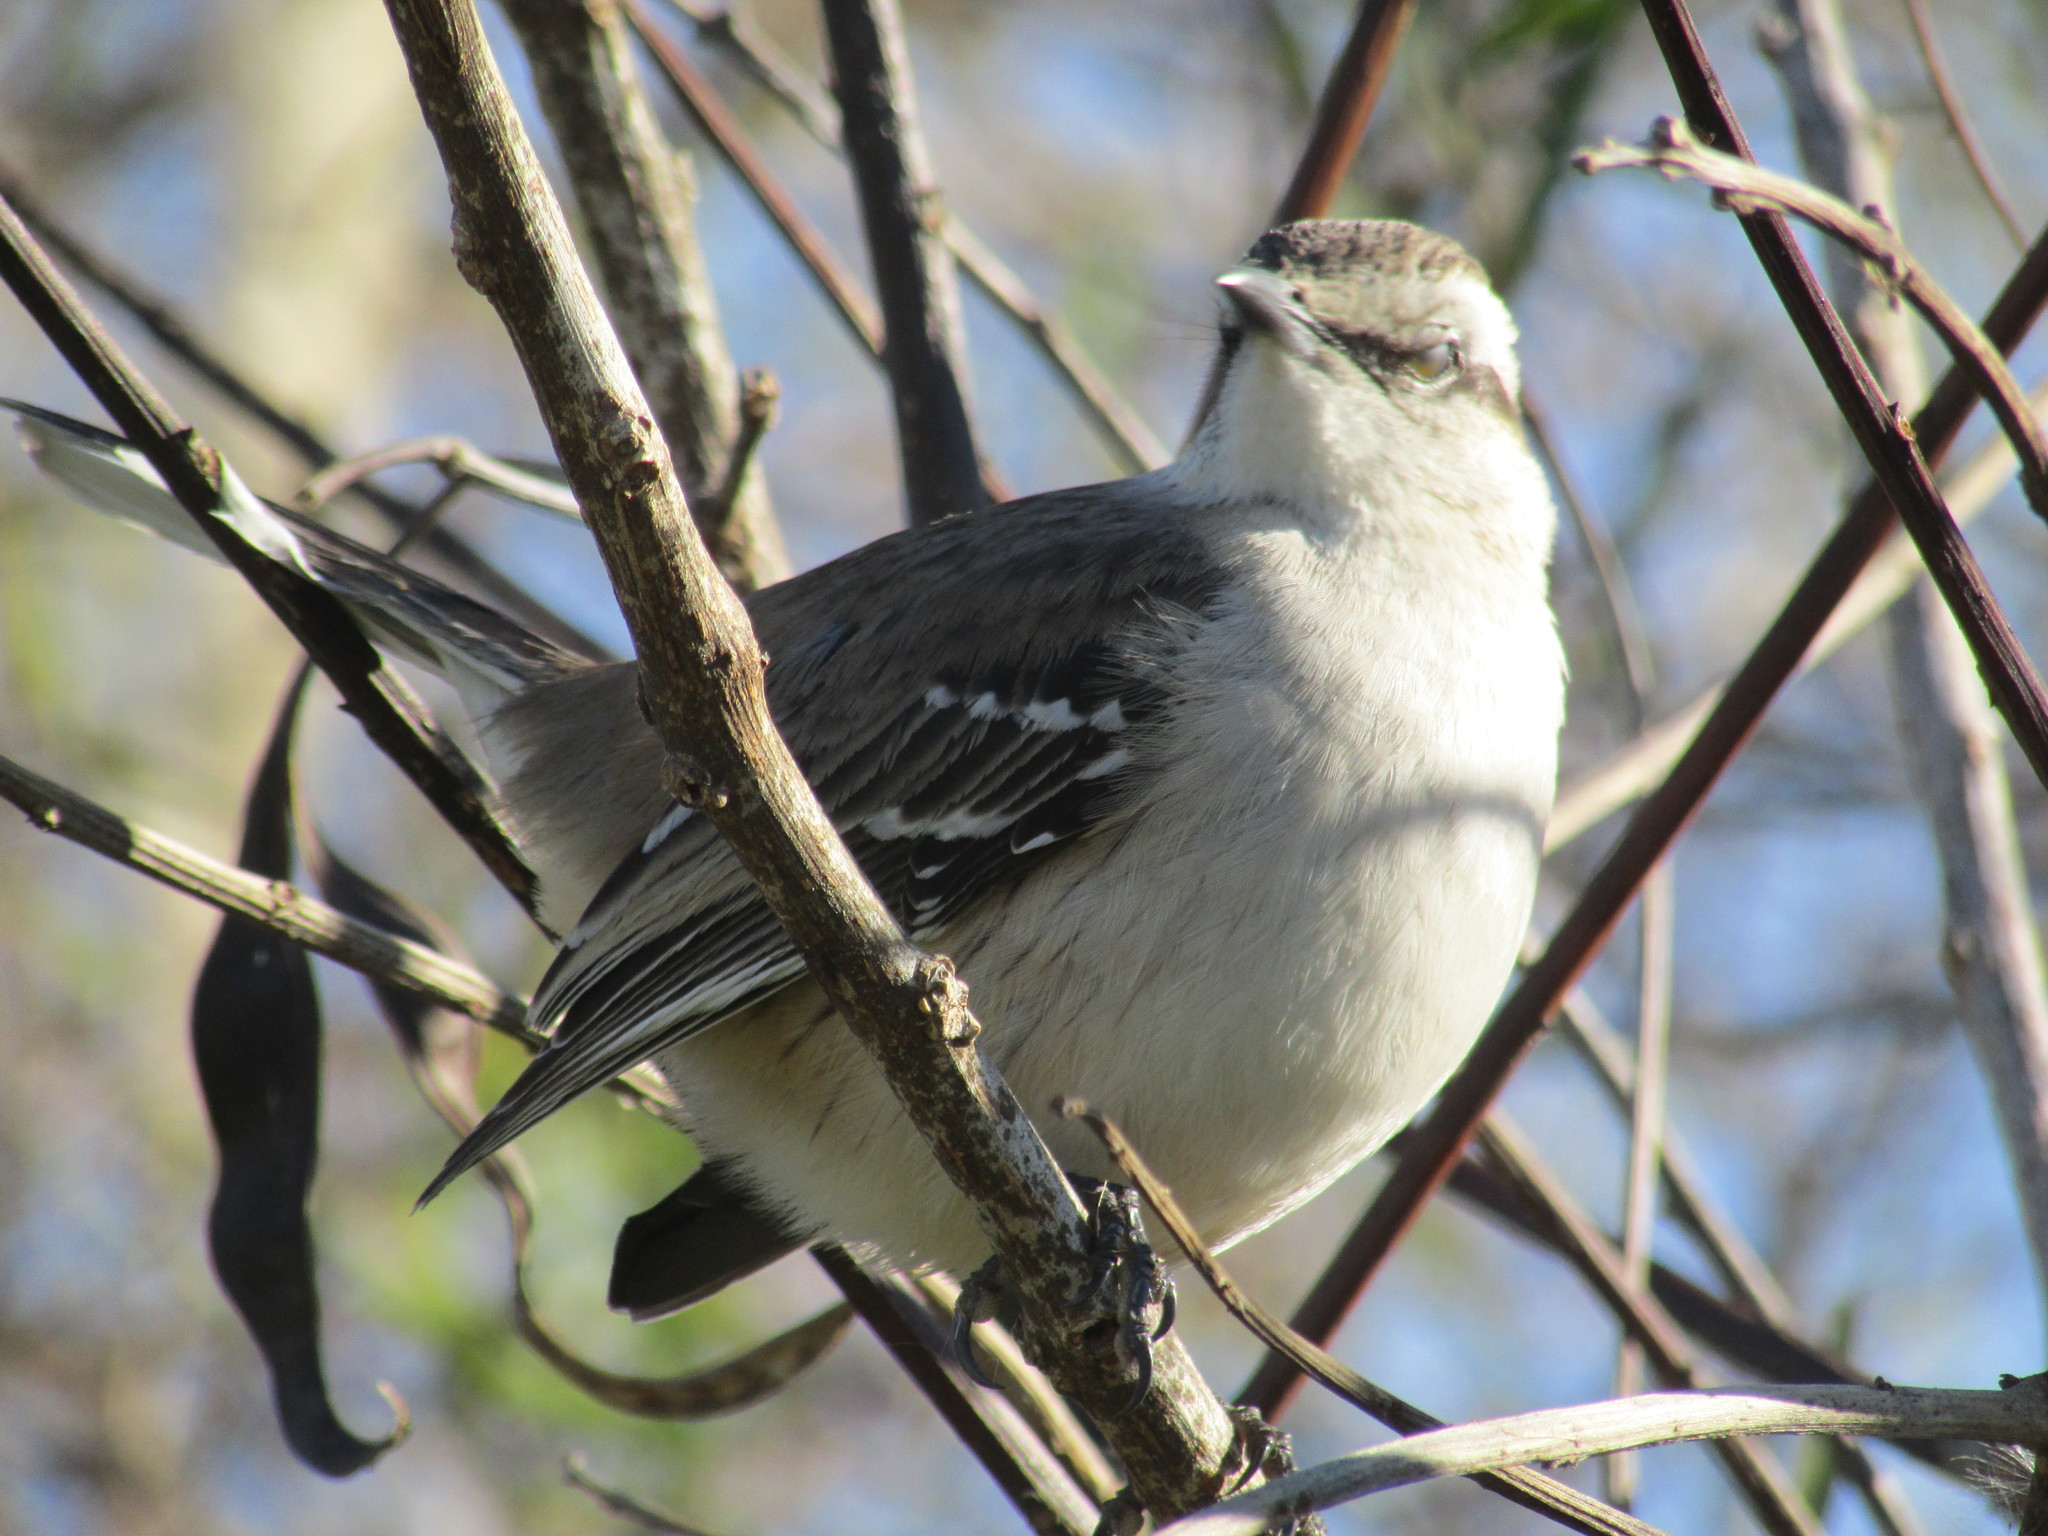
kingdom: Animalia
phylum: Chordata
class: Aves
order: Passeriformes
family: Mimidae
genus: Mimus
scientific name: Mimus saturninus
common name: Chalk-browed mockingbird
